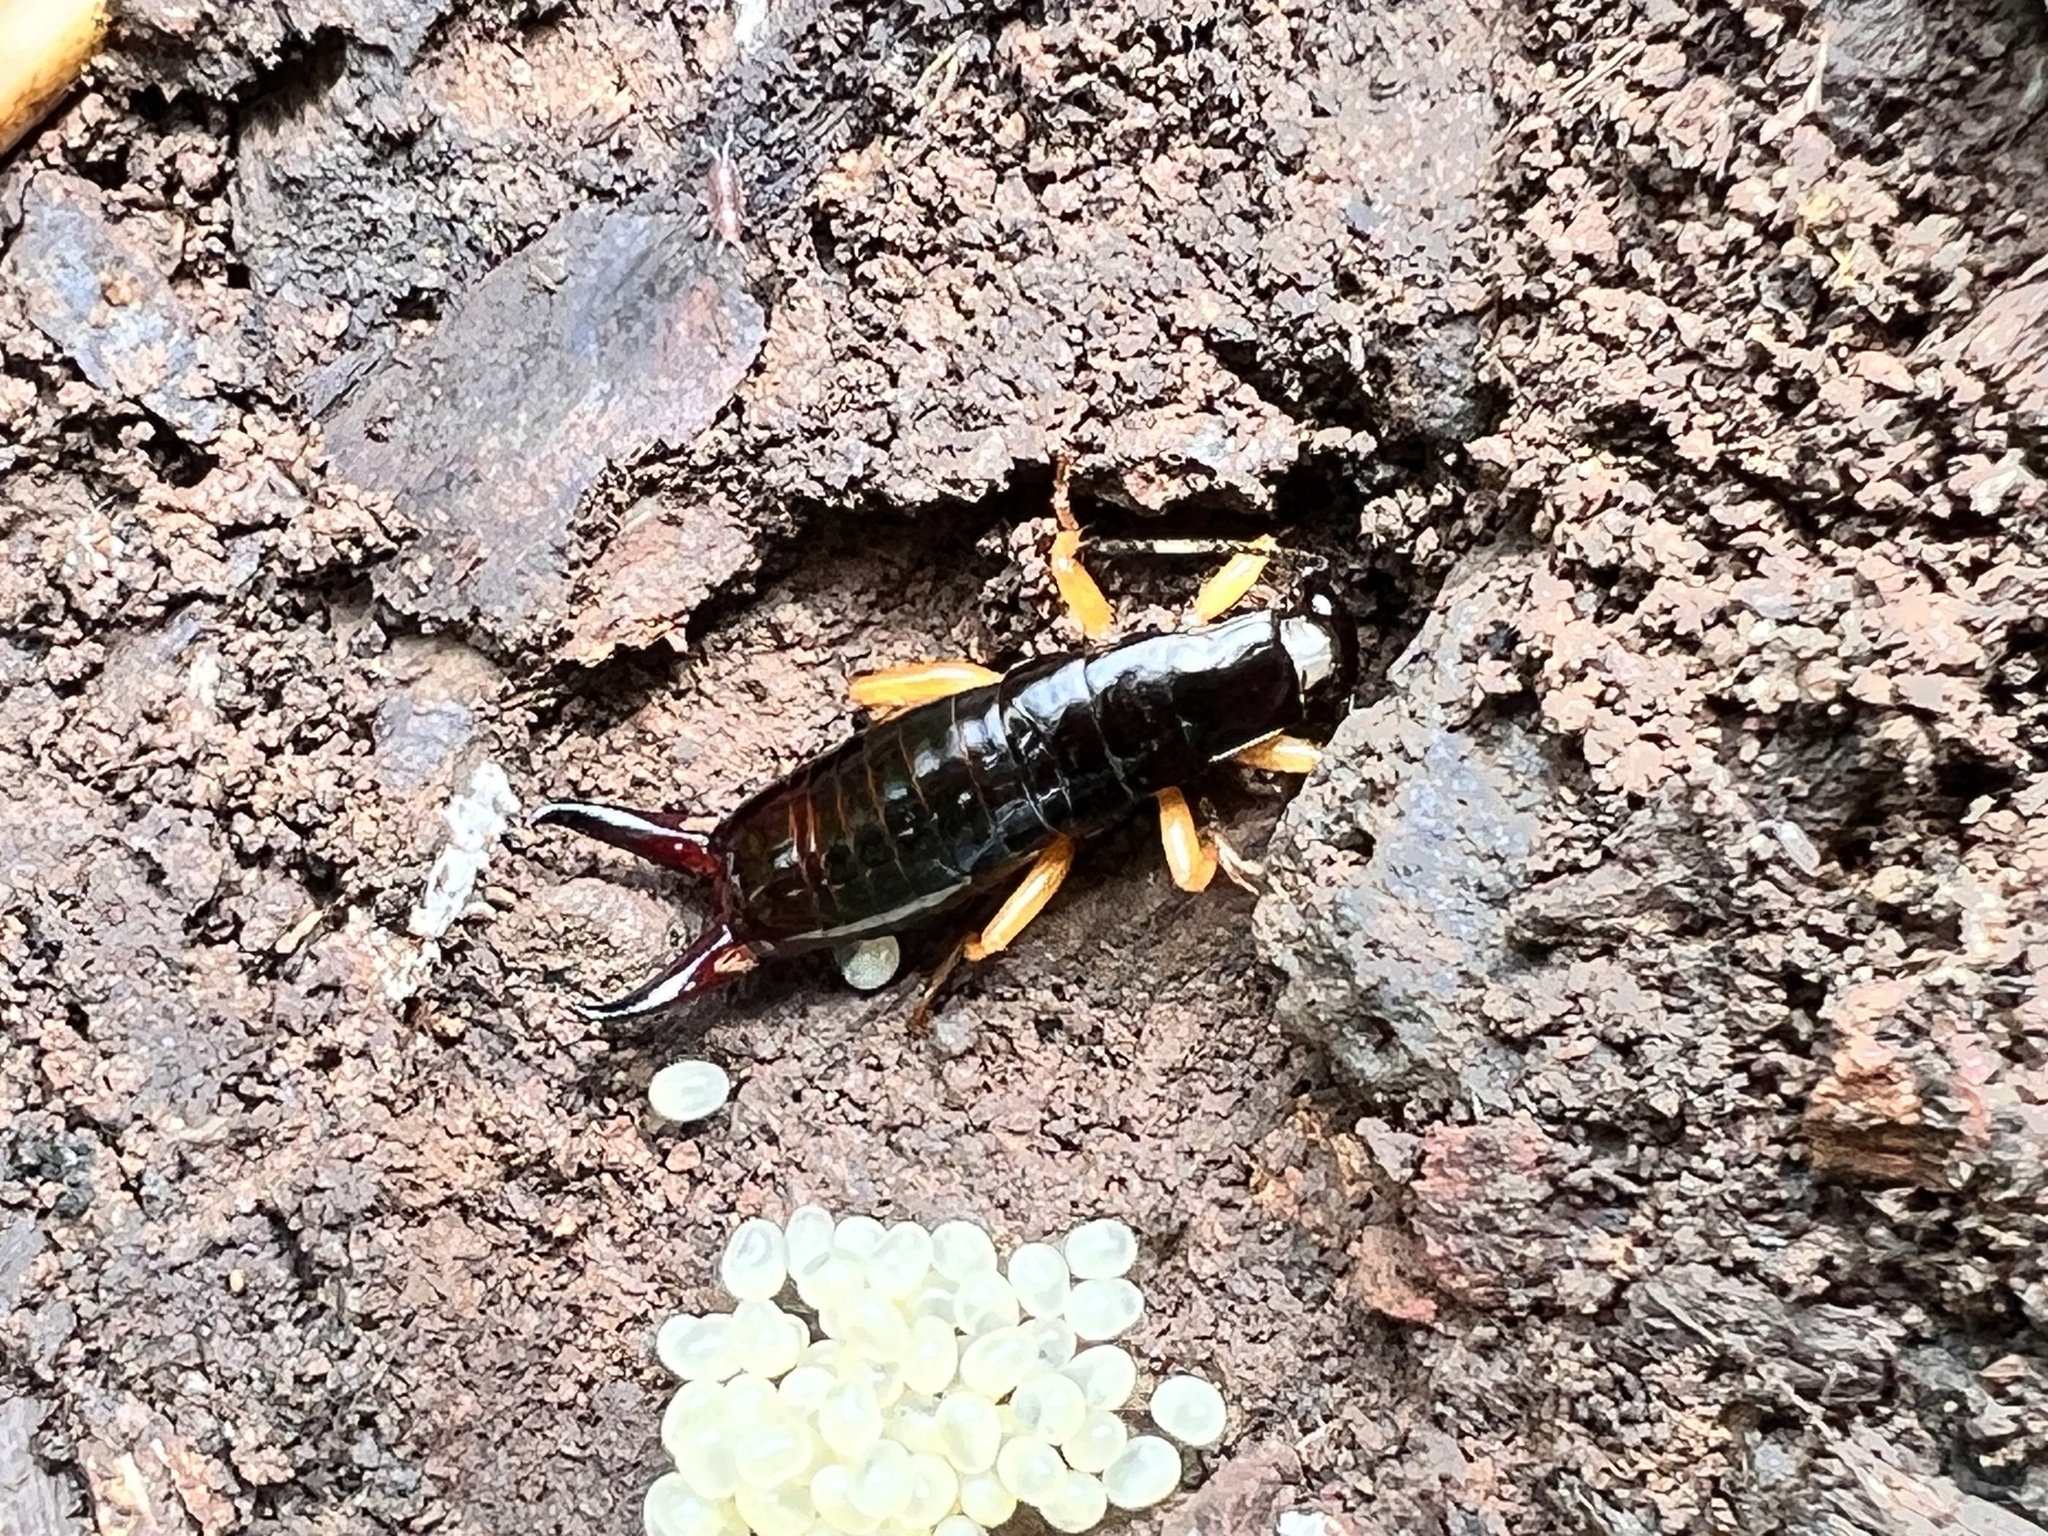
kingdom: Animalia
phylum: Arthropoda
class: Insecta
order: Dermaptera
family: Anisolabididae
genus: Euborellia
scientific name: Euborellia eteronoma
